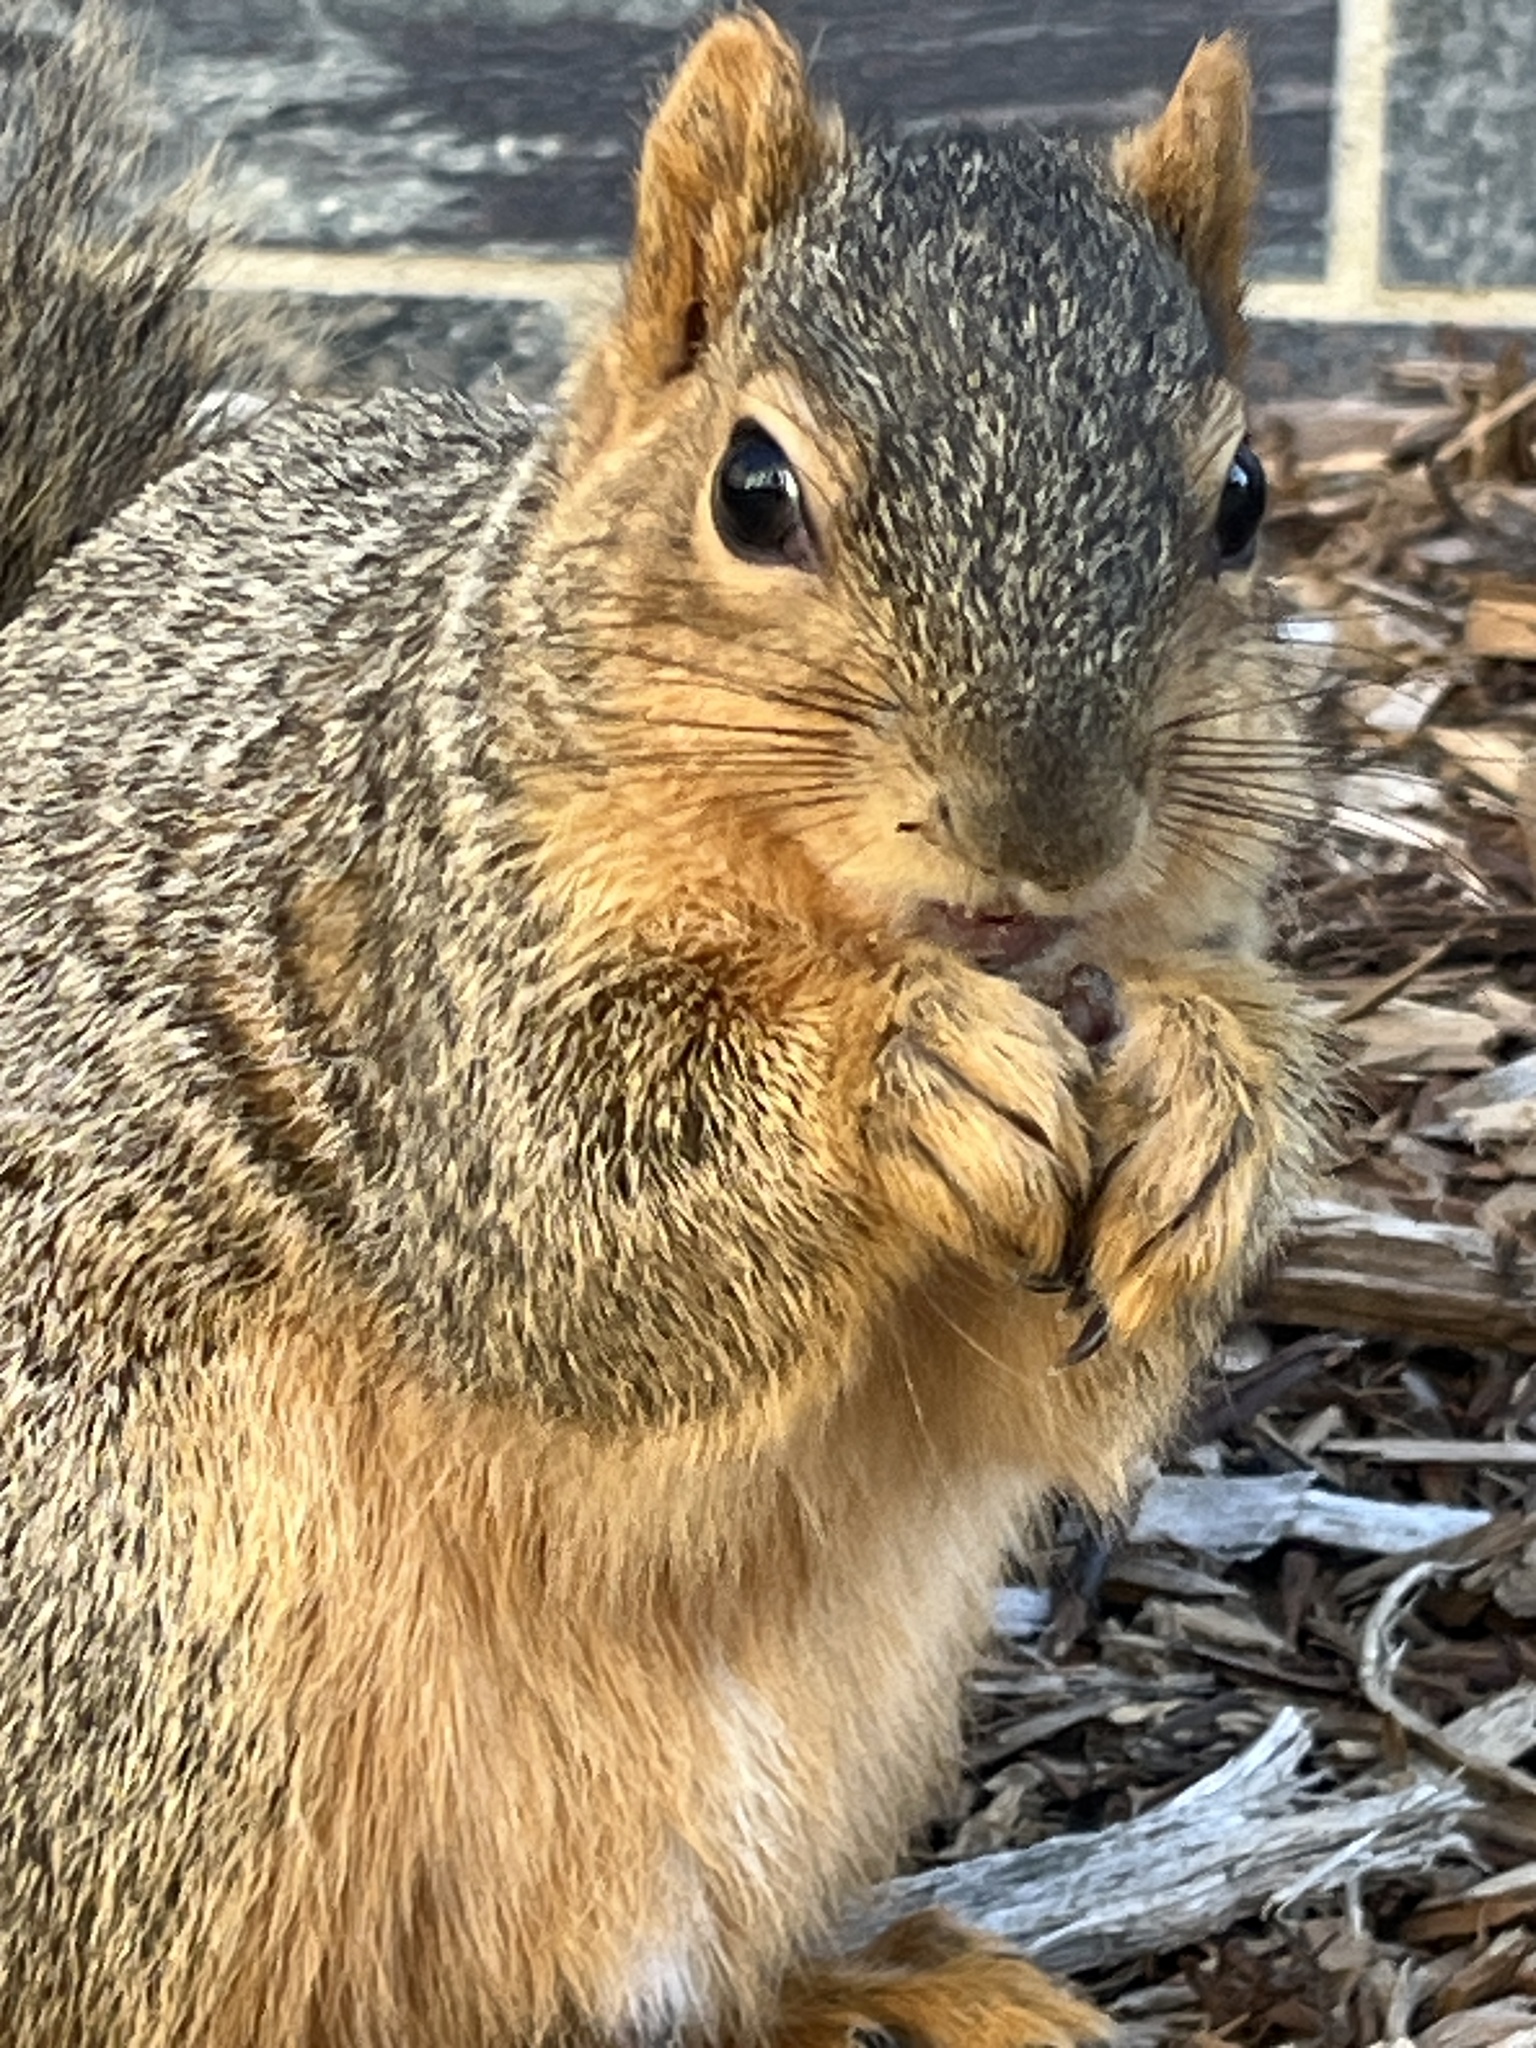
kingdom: Animalia
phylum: Chordata
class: Mammalia
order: Rodentia
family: Sciuridae
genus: Sciurus
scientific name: Sciurus niger
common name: Fox squirrel
